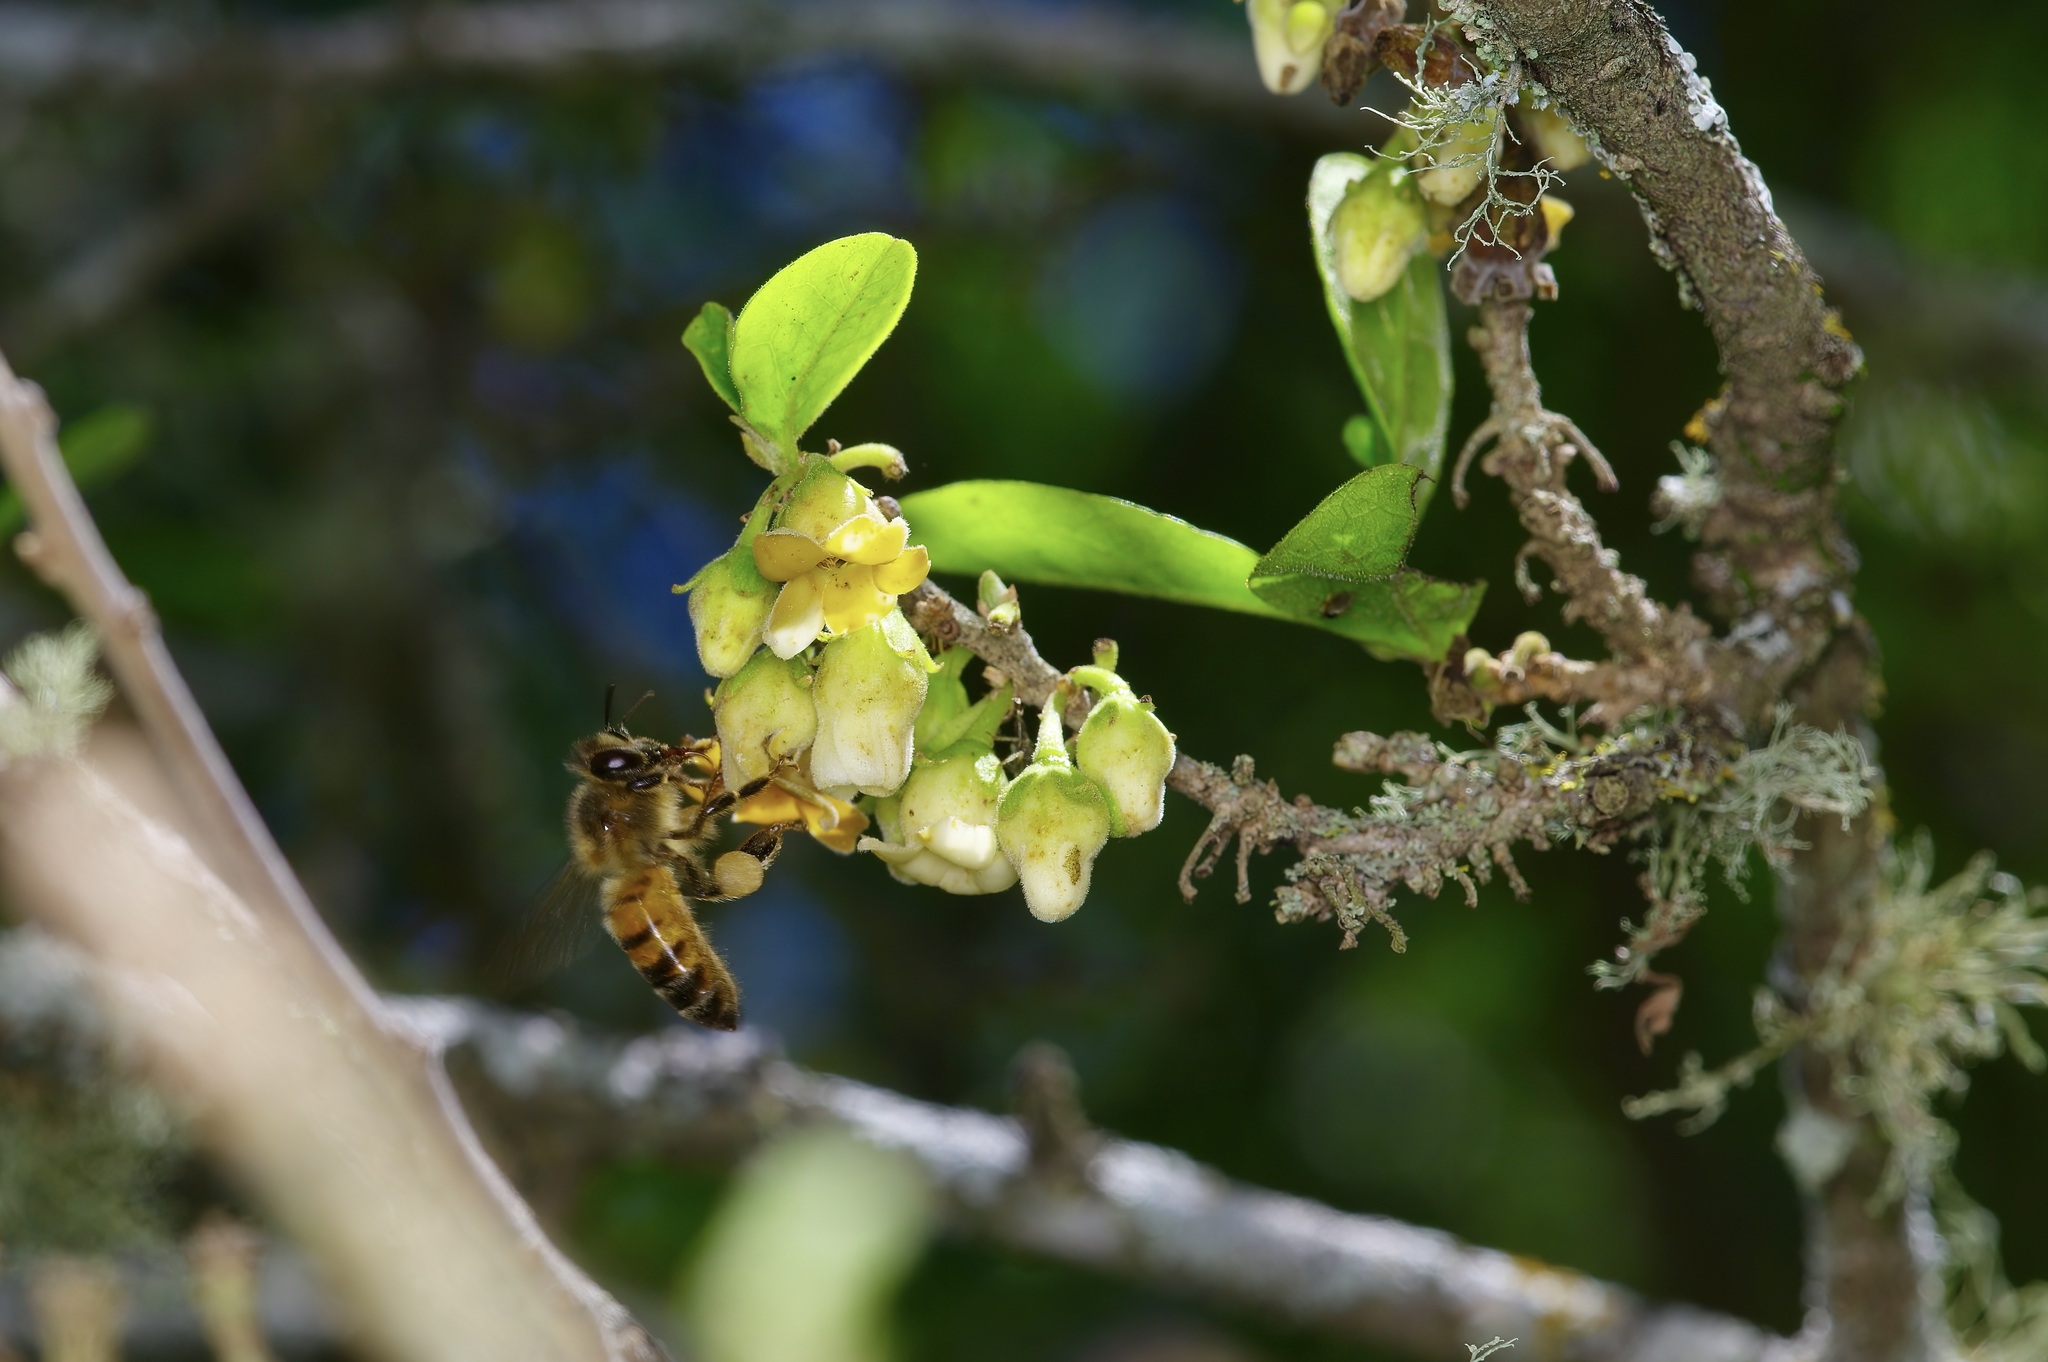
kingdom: Plantae
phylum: Tracheophyta
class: Magnoliopsida
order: Ericales
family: Ebenaceae
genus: Diospyros
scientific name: Diospyros texana
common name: Texas persimmon
